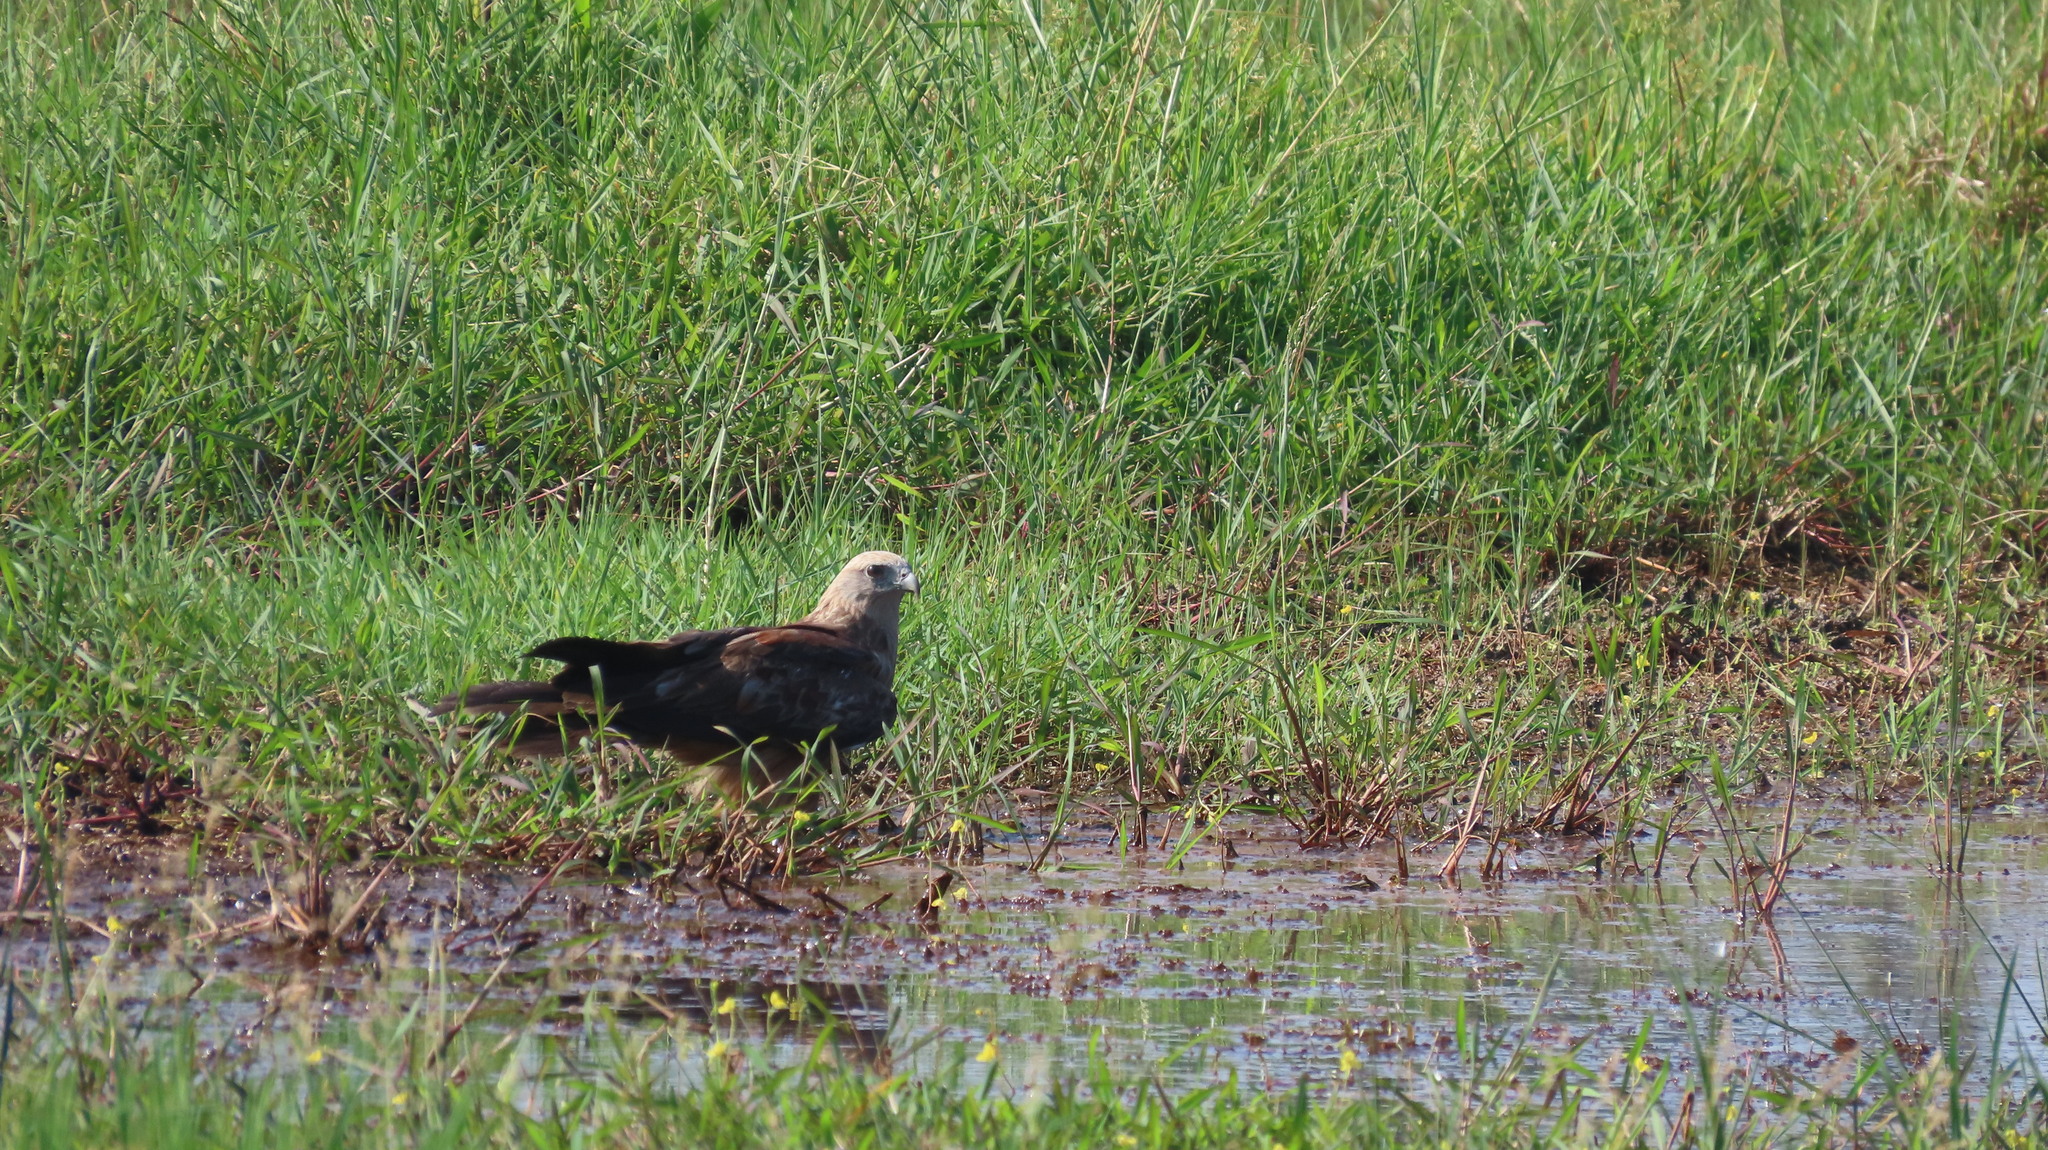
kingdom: Animalia
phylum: Chordata
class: Aves
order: Accipitriformes
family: Accipitridae
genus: Haliastur
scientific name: Haliastur indus
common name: Brahminy kite
